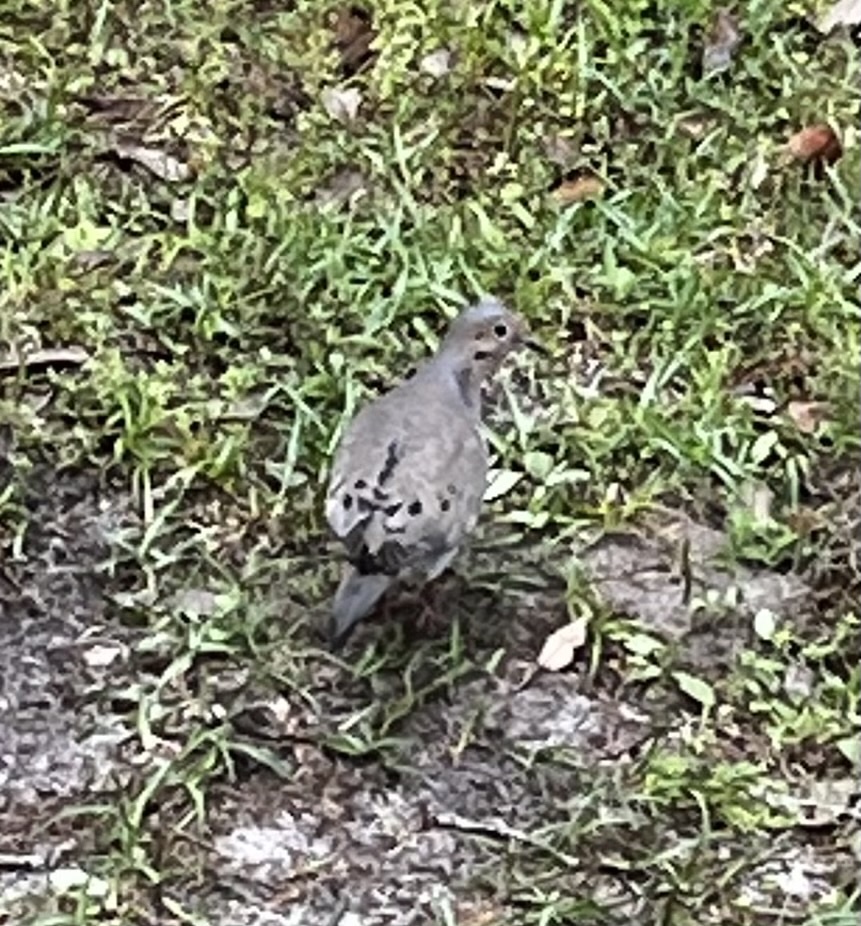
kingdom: Animalia
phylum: Chordata
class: Aves
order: Columbiformes
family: Columbidae
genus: Zenaida
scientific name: Zenaida macroura
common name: Mourning dove
